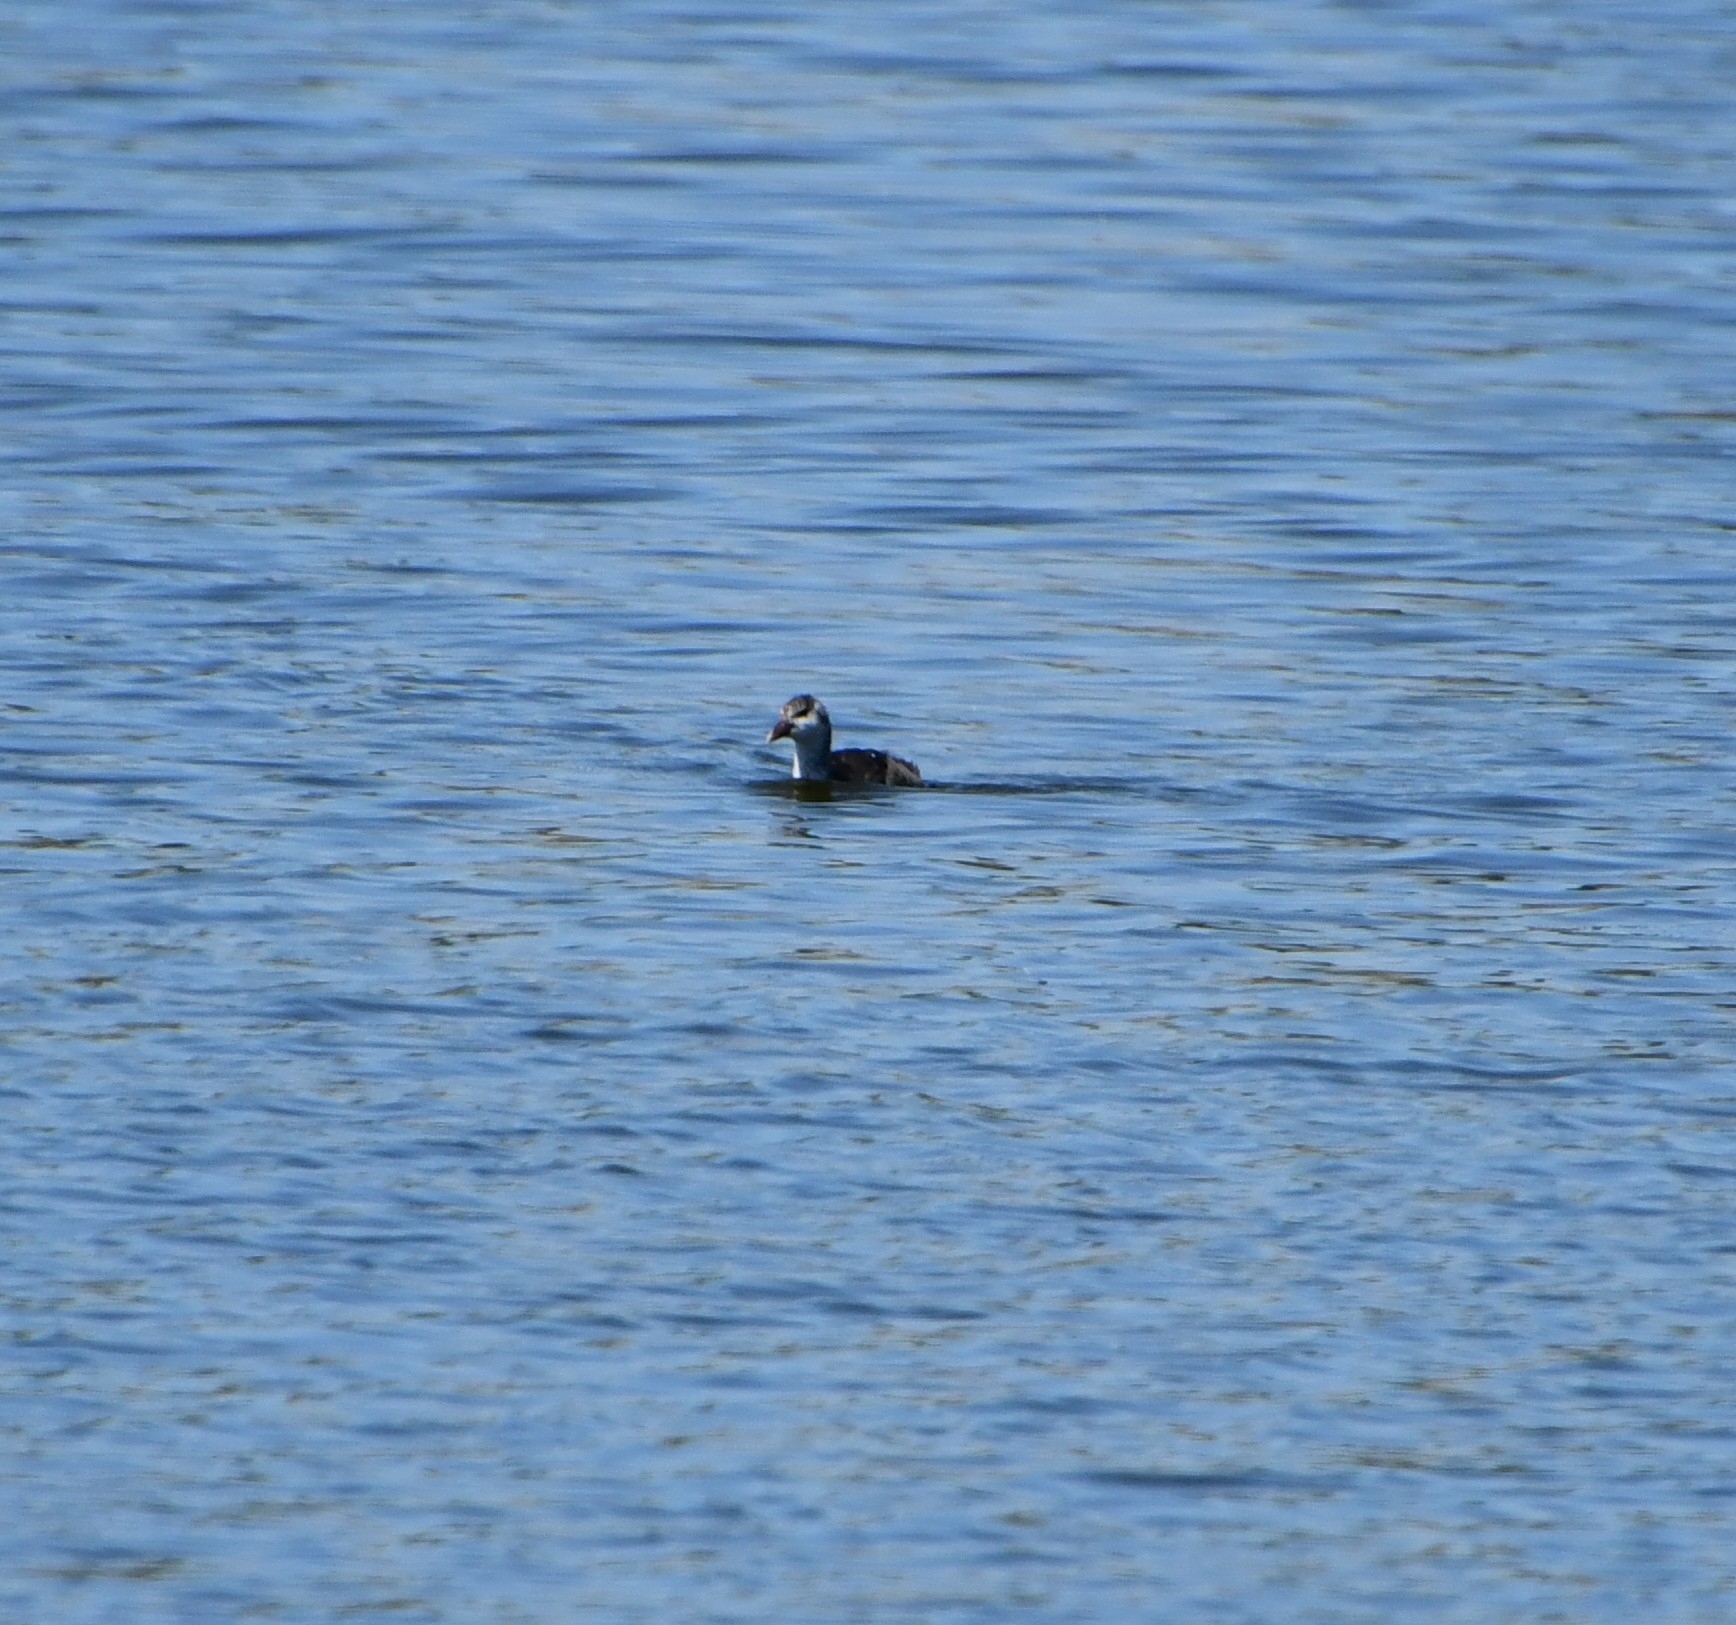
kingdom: Animalia
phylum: Chordata
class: Aves
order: Gruiformes
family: Rallidae
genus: Fulica
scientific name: Fulica atra
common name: Eurasian coot
